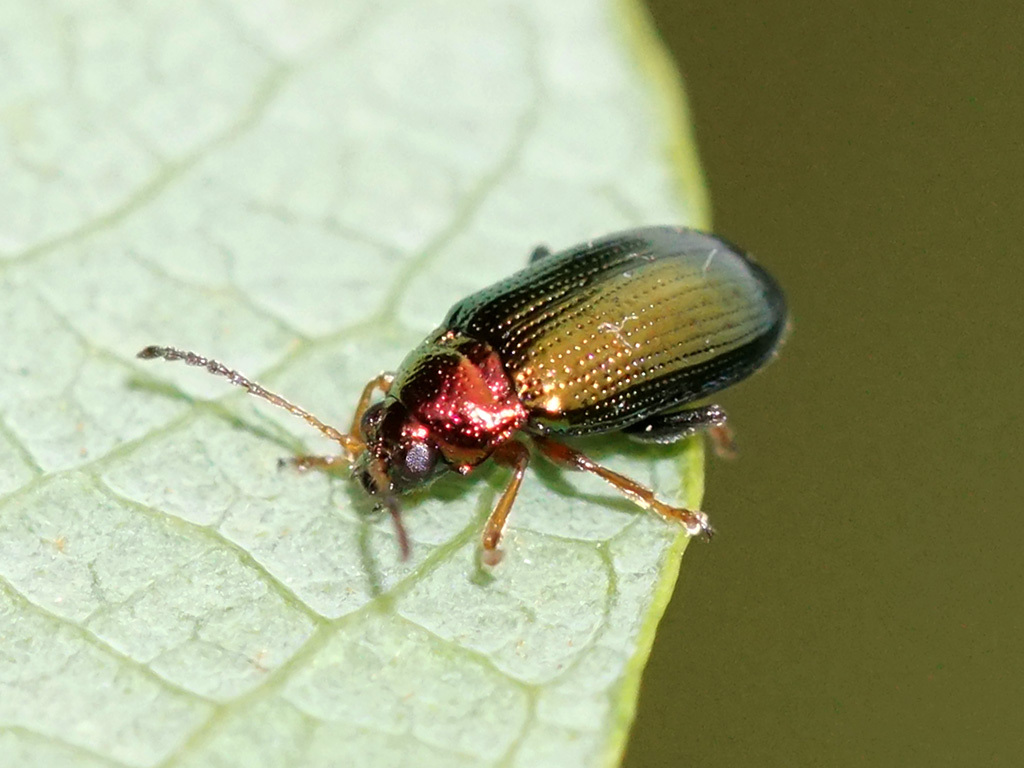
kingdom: Animalia
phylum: Arthropoda
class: Insecta
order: Coleoptera
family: Chrysomelidae
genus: Crepidodera
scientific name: Crepidodera aurata
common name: Willow flea beetle
